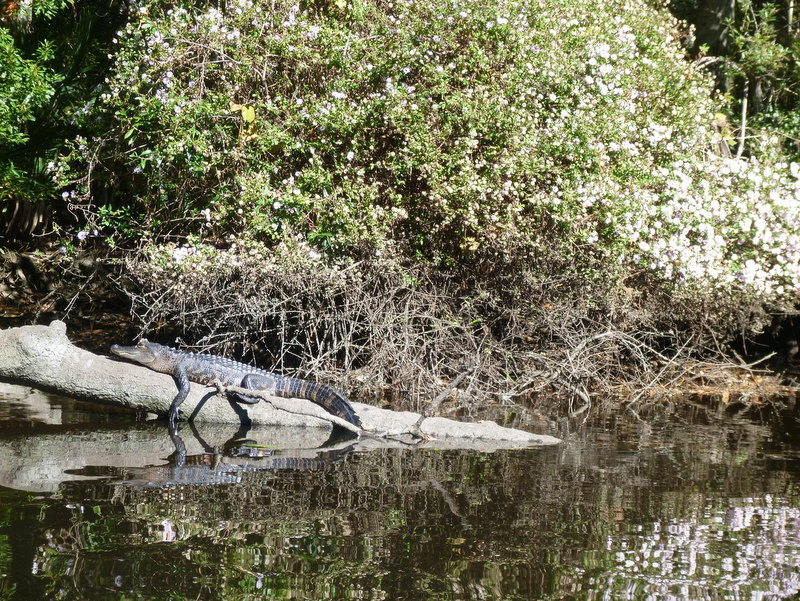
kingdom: Animalia
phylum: Chordata
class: Crocodylia
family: Alligatoridae
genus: Alligator
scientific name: Alligator mississippiensis
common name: American alligator
